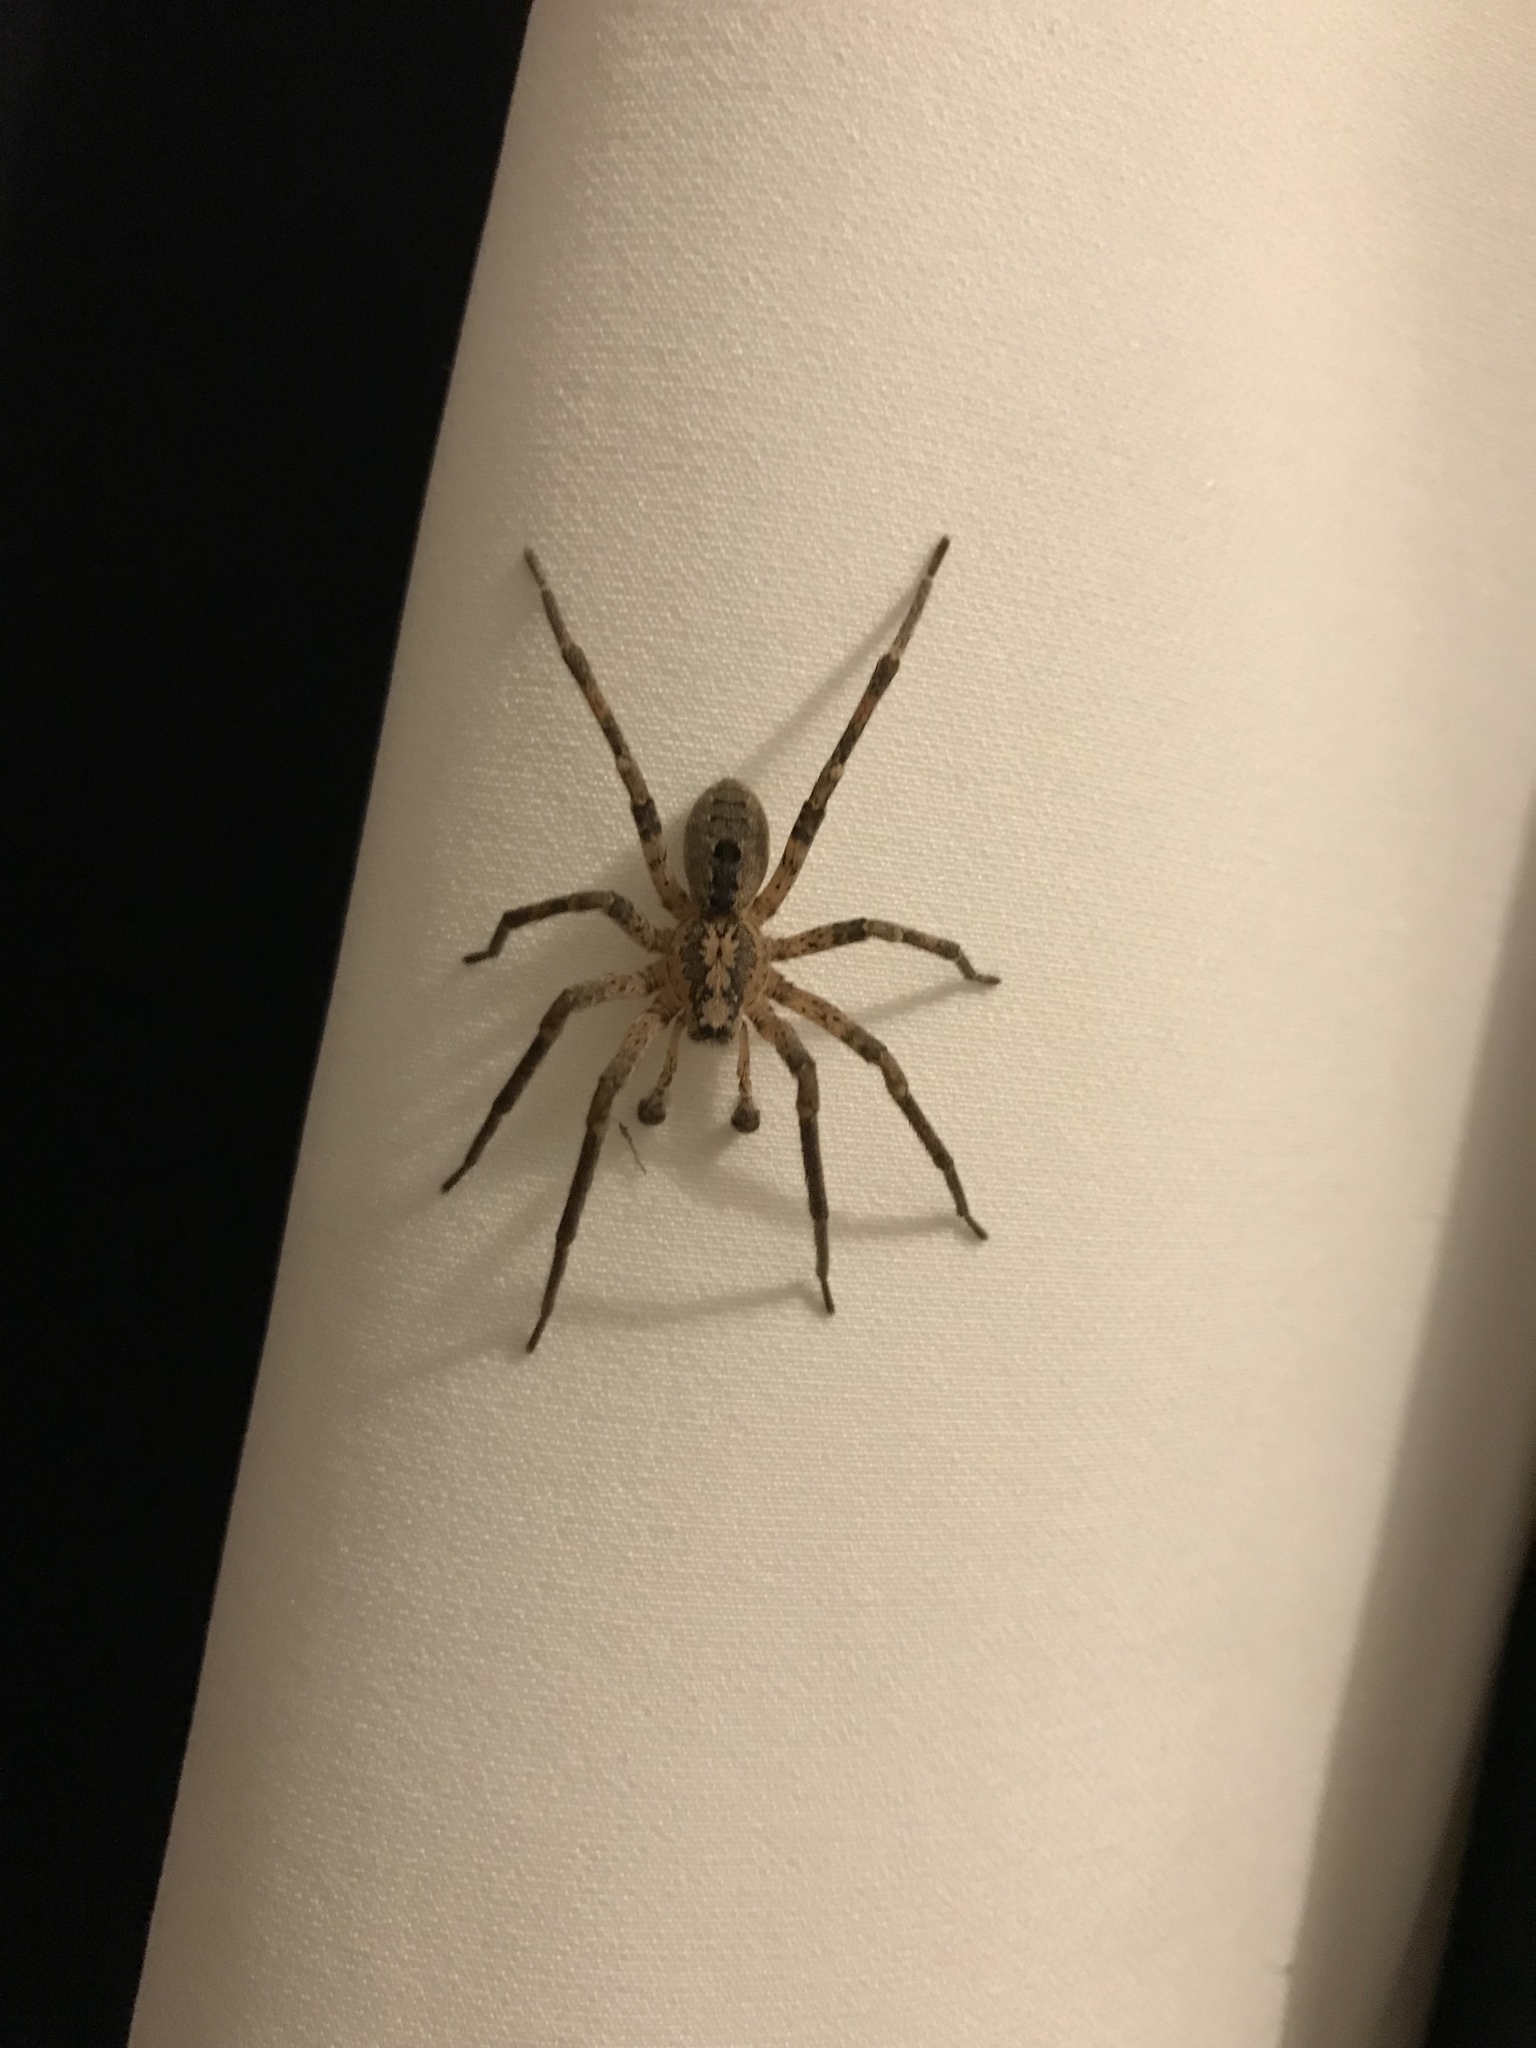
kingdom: Animalia
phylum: Arthropoda
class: Arachnida
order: Araneae
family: Zoropsidae
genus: Zoropsis
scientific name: Zoropsis spinimana
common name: Zoropsid spider
